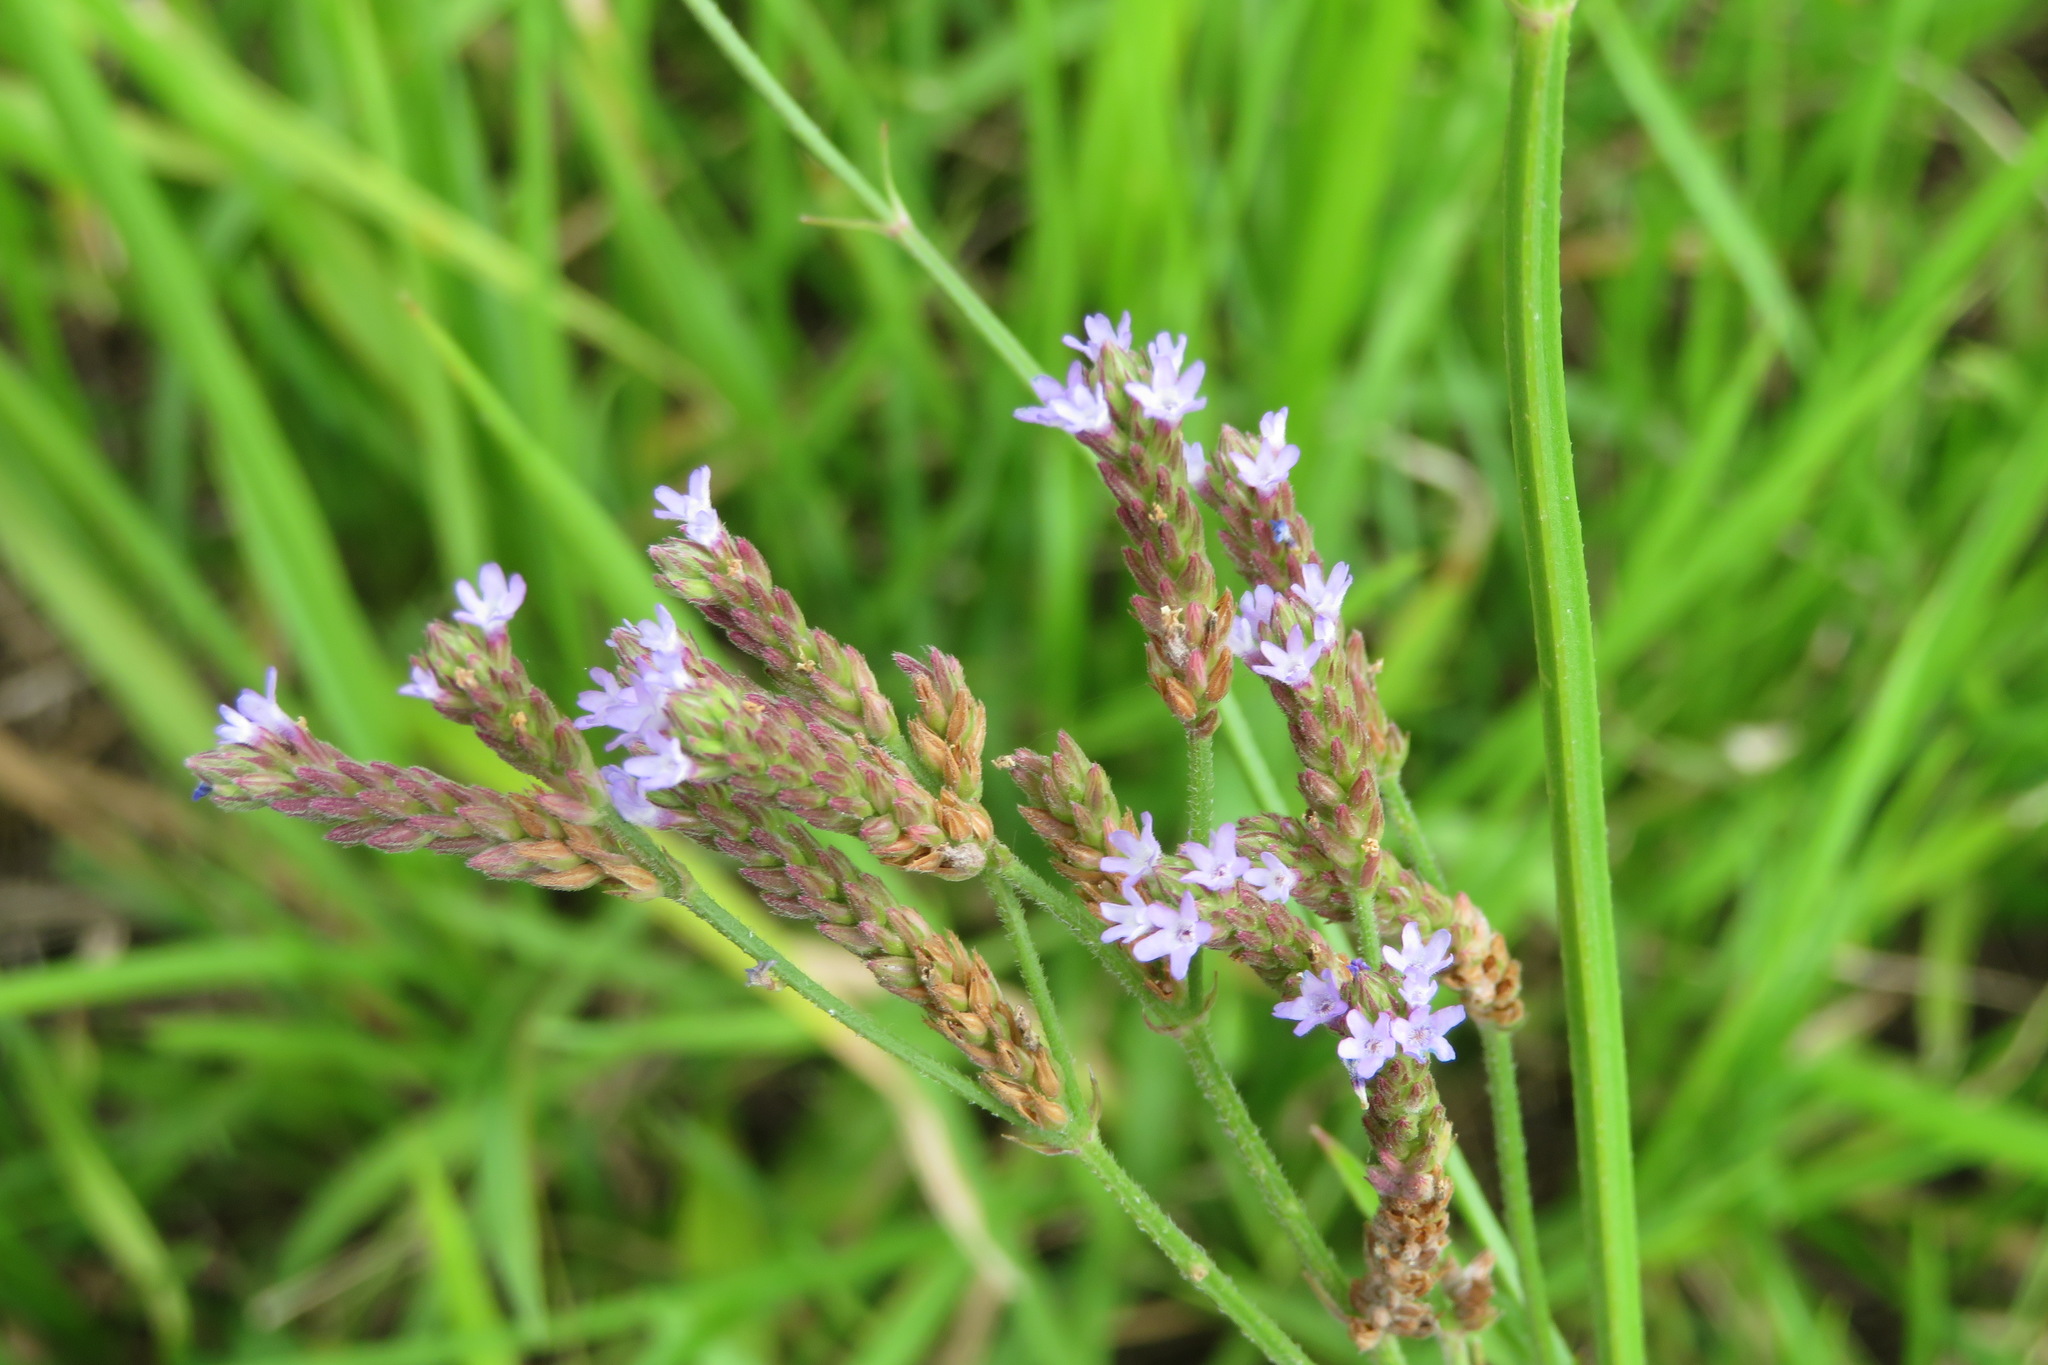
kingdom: Plantae
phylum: Tracheophyta
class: Magnoliopsida
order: Lamiales
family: Verbenaceae
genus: Verbena
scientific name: Verbena brasiliensis
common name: Brazilian vervain
